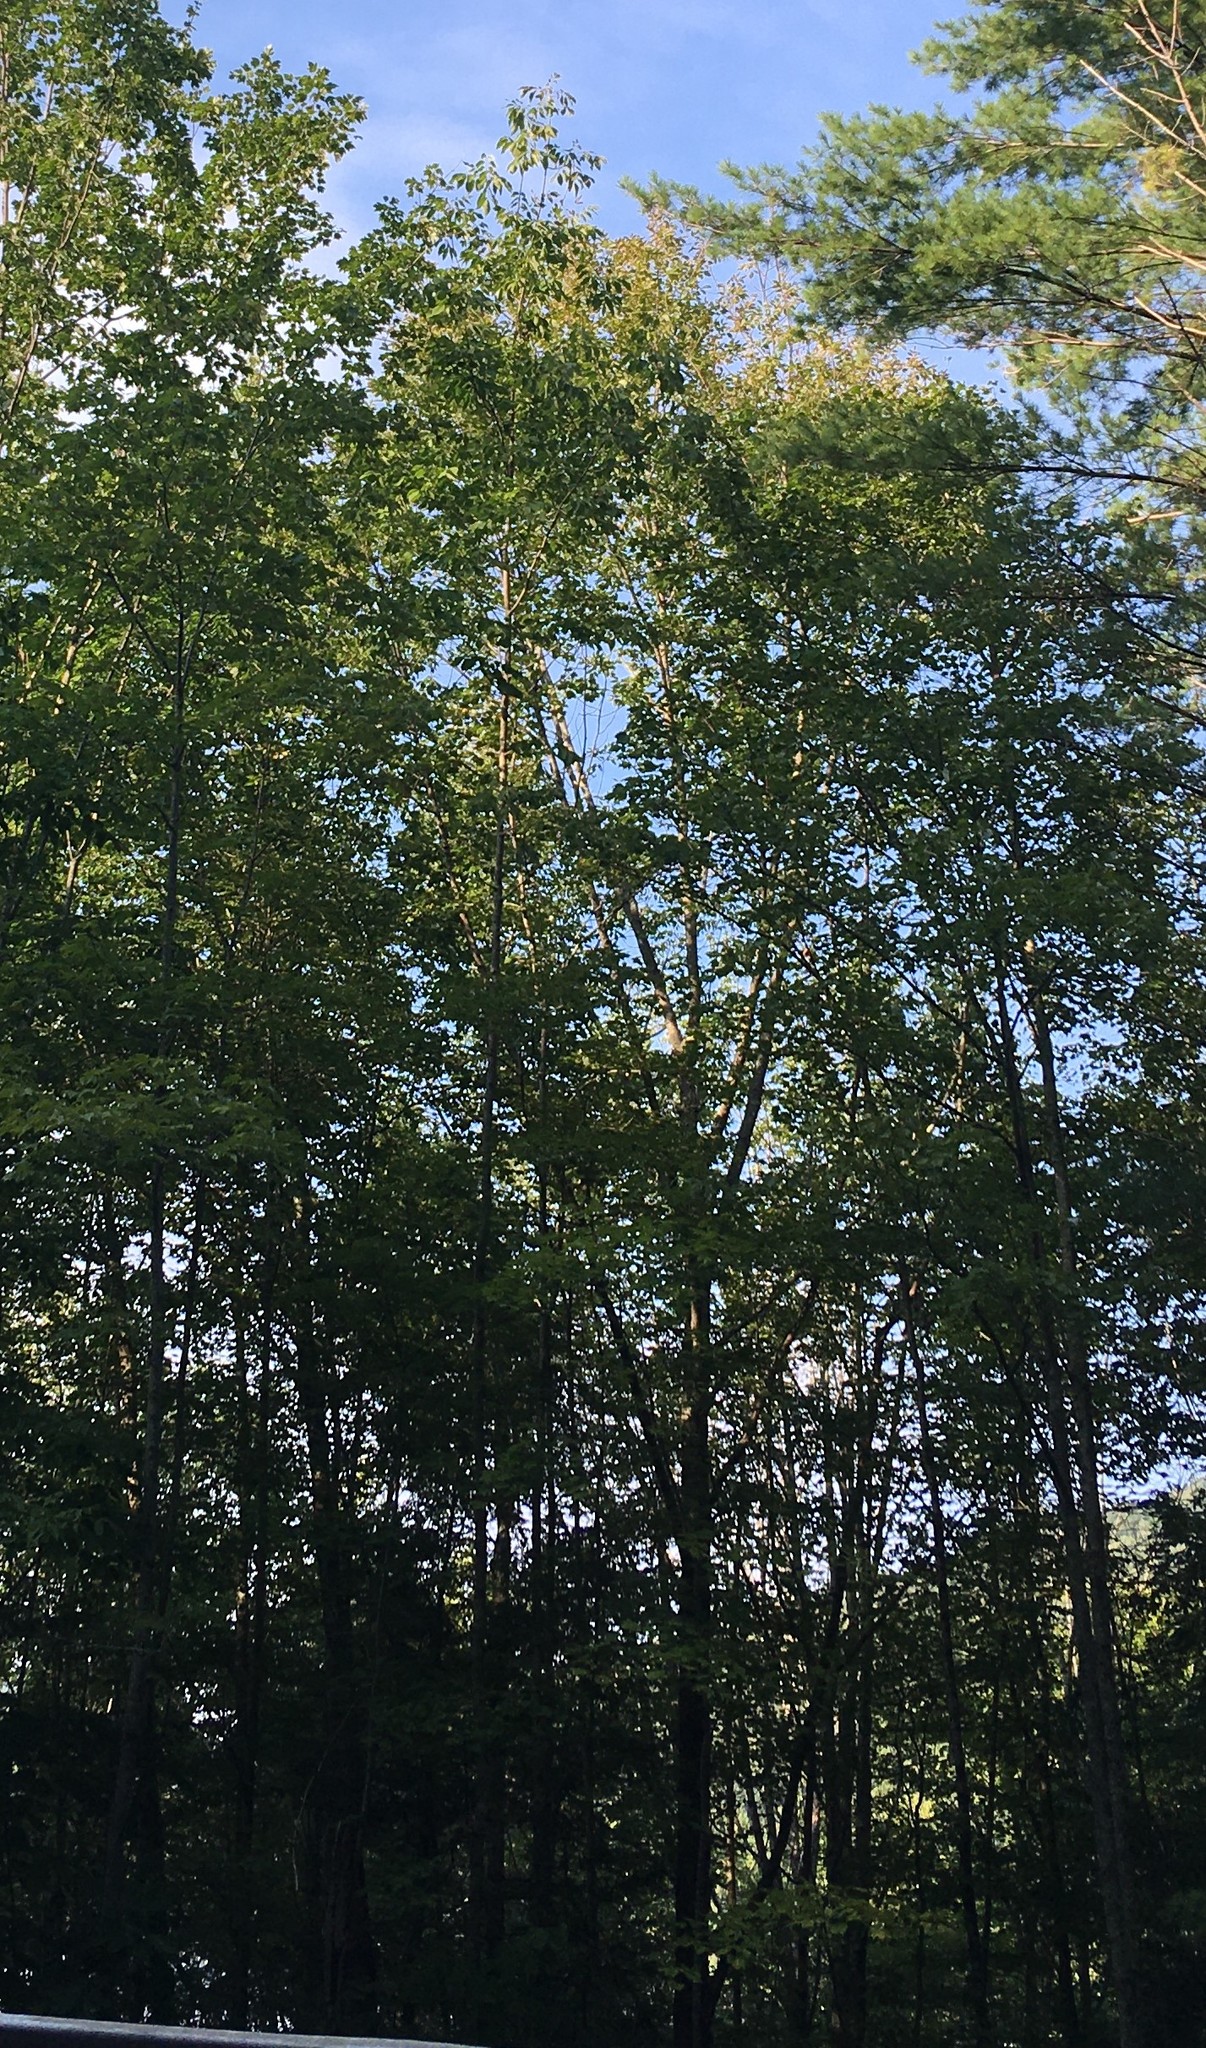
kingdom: Plantae
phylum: Tracheophyta
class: Magnoliopsida
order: Lamiales
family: Oleaceae
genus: Fraxinus
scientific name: Fraxinus americana
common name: White ash
